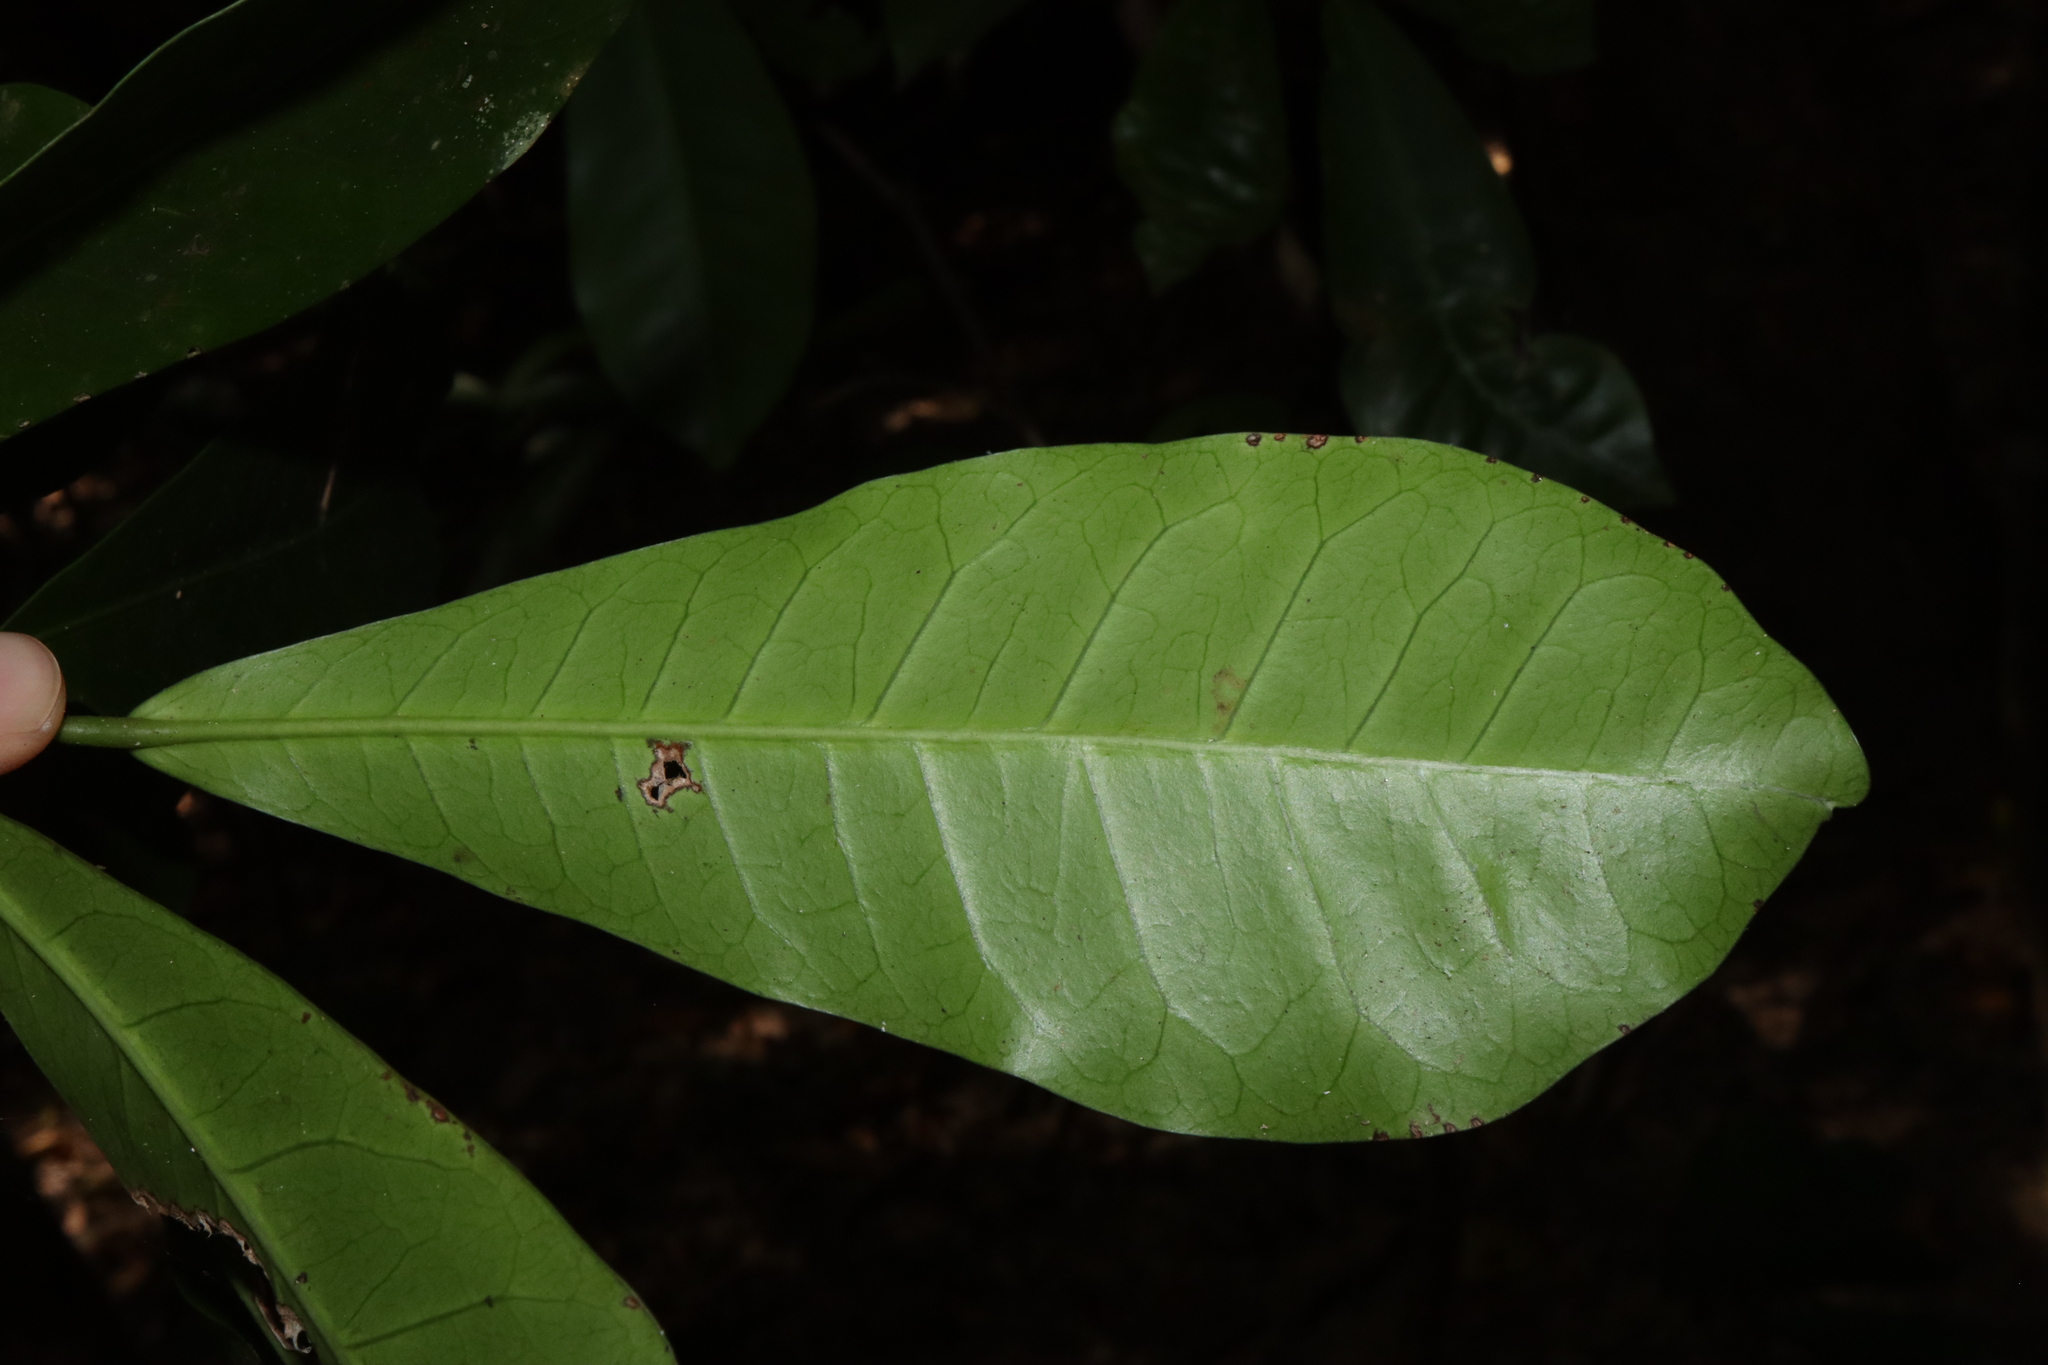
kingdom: Plantae
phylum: Tracheophyta
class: Magnoliopsida
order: Malpighiales
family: Euphorbiaceae
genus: Codiaeum
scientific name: Codiaeum variegatum
